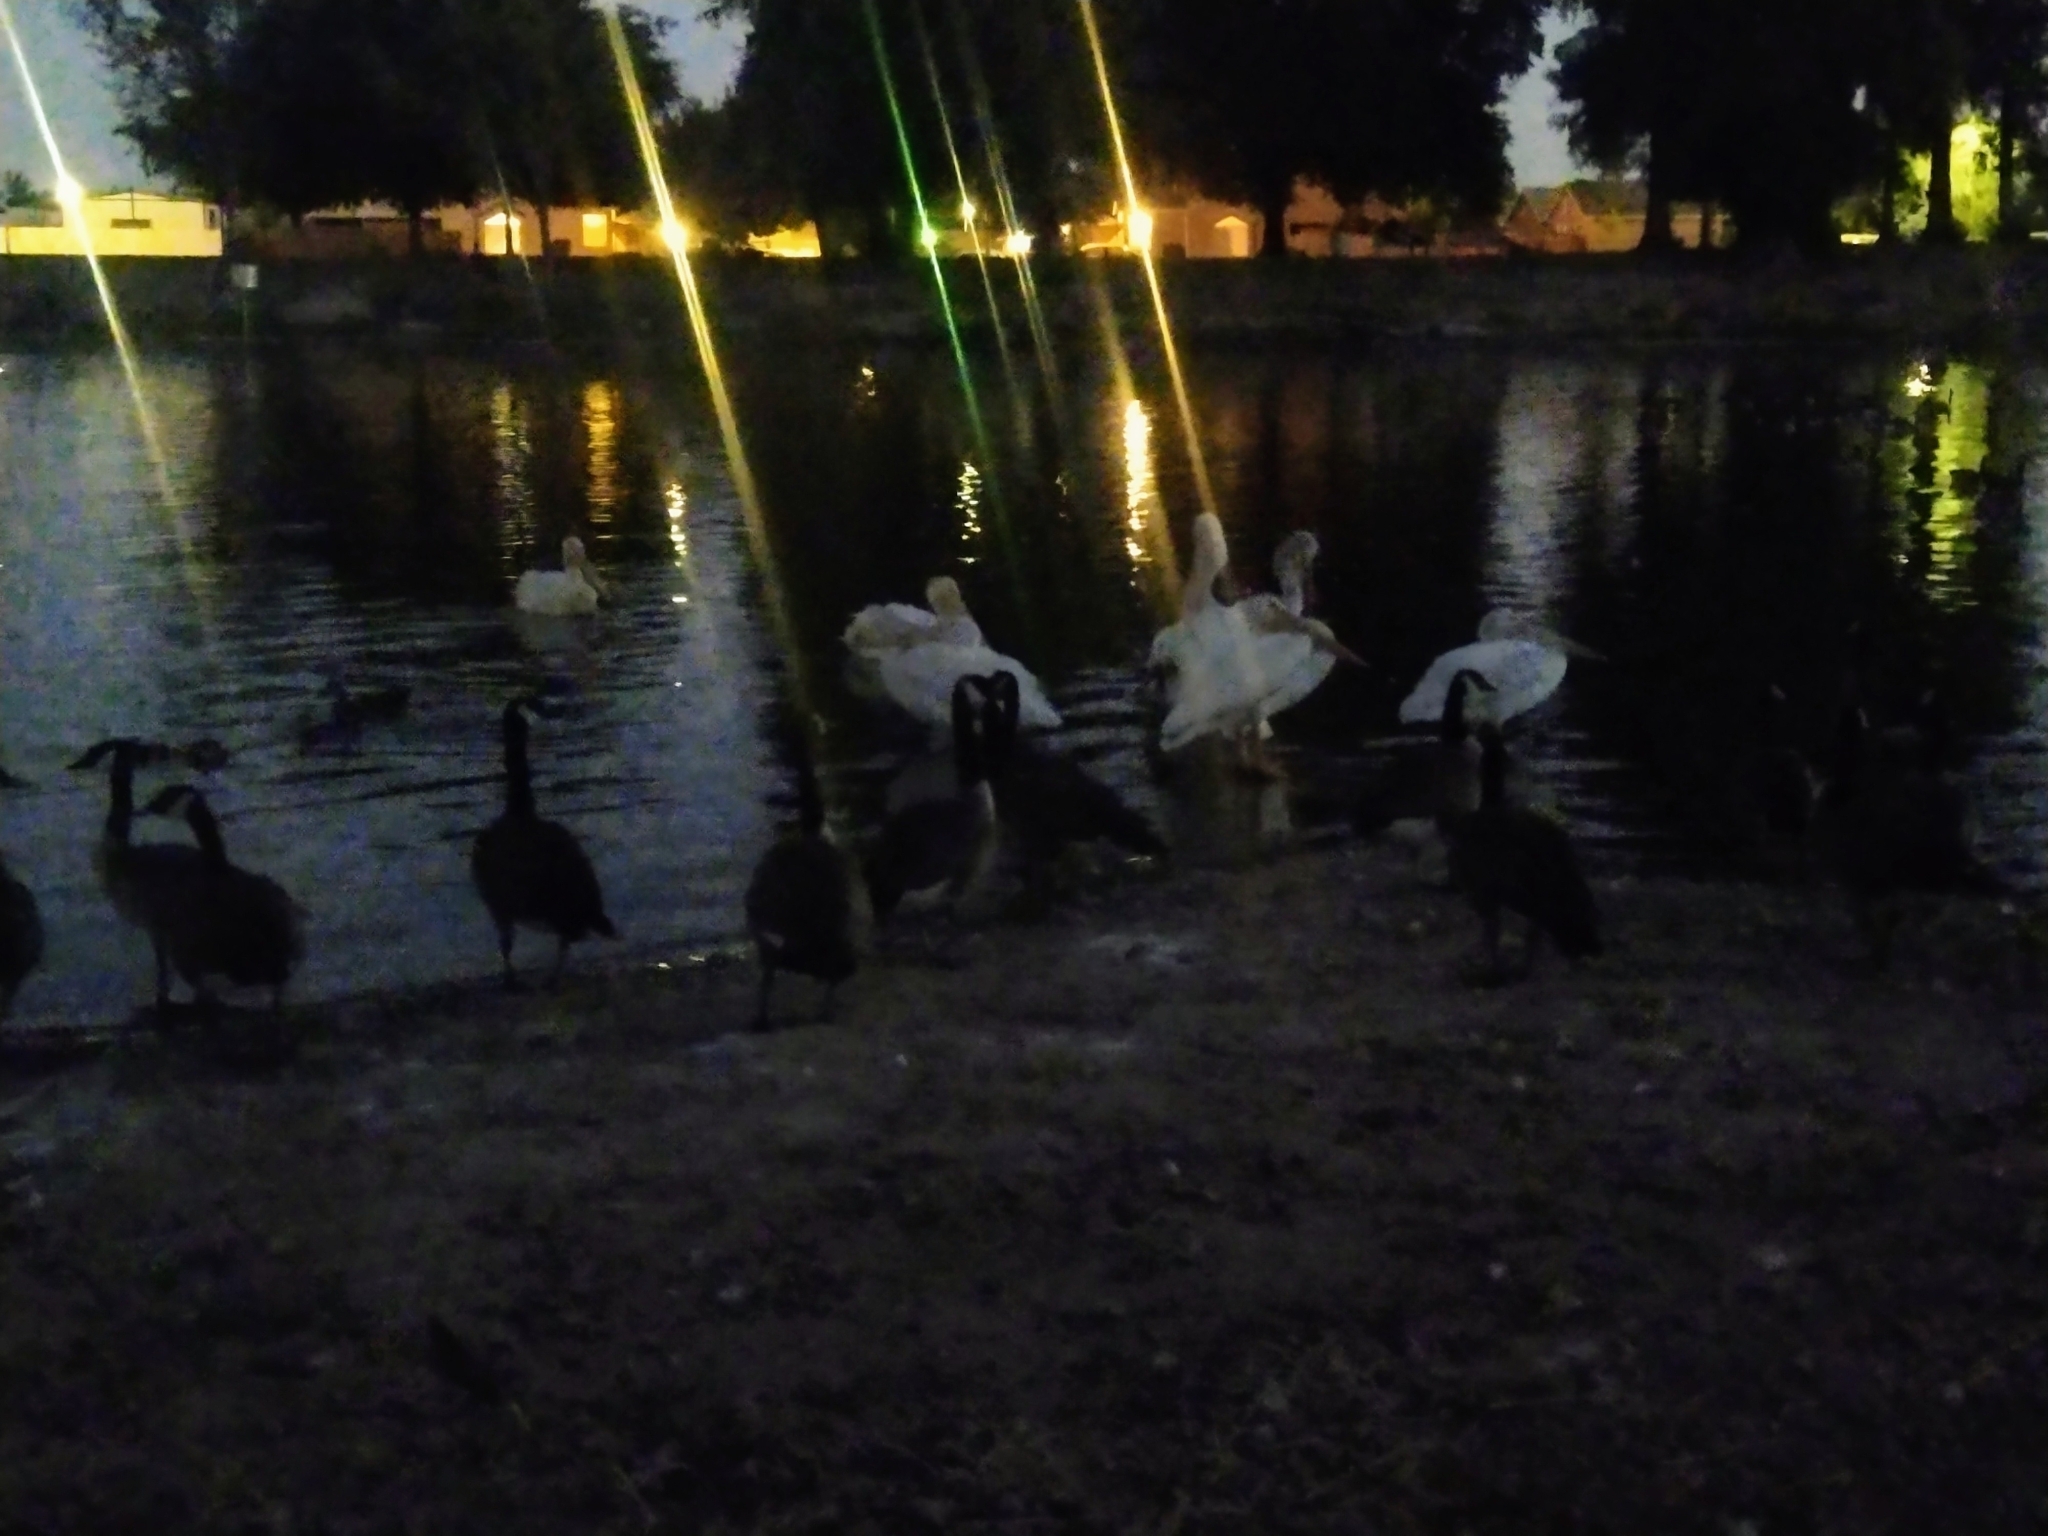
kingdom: Animalia
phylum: Chordata
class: Aves
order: Pelecaniformes
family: Pelecanidae
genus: Pelecanus
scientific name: Pelecanus erythrorhynchos
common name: American white pelican
